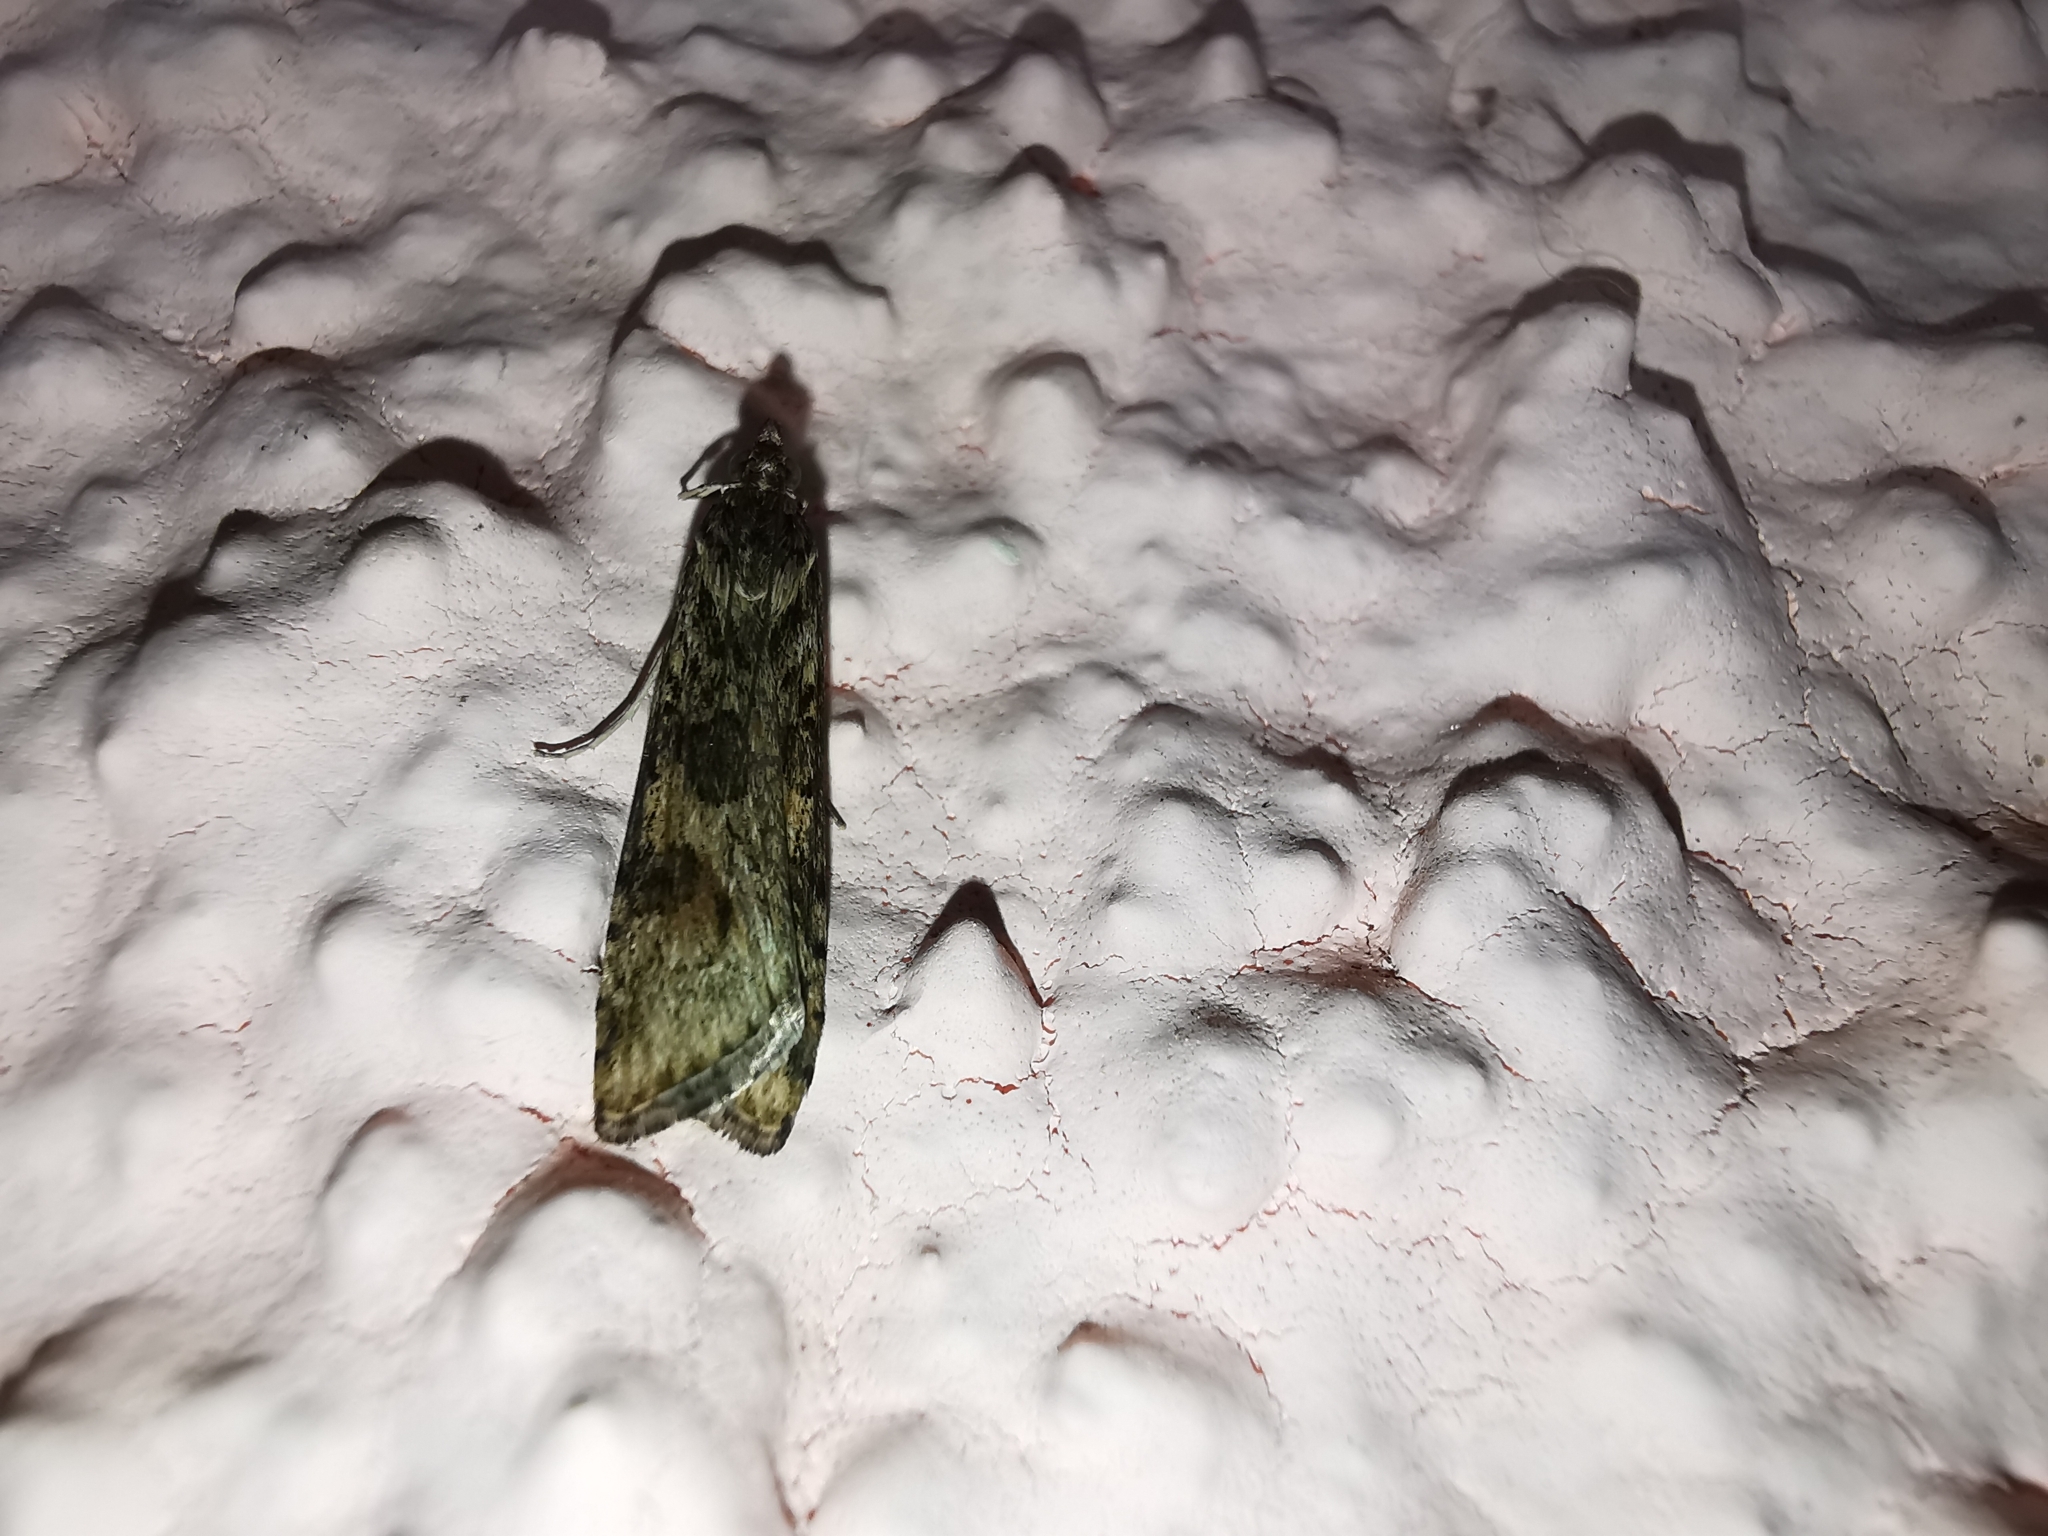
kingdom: Animalia
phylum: Arthropoda
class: Insecta
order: Lepidoptera
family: Crambidae
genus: Nomophila
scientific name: Nomophila noctuella
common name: Rush veneer
